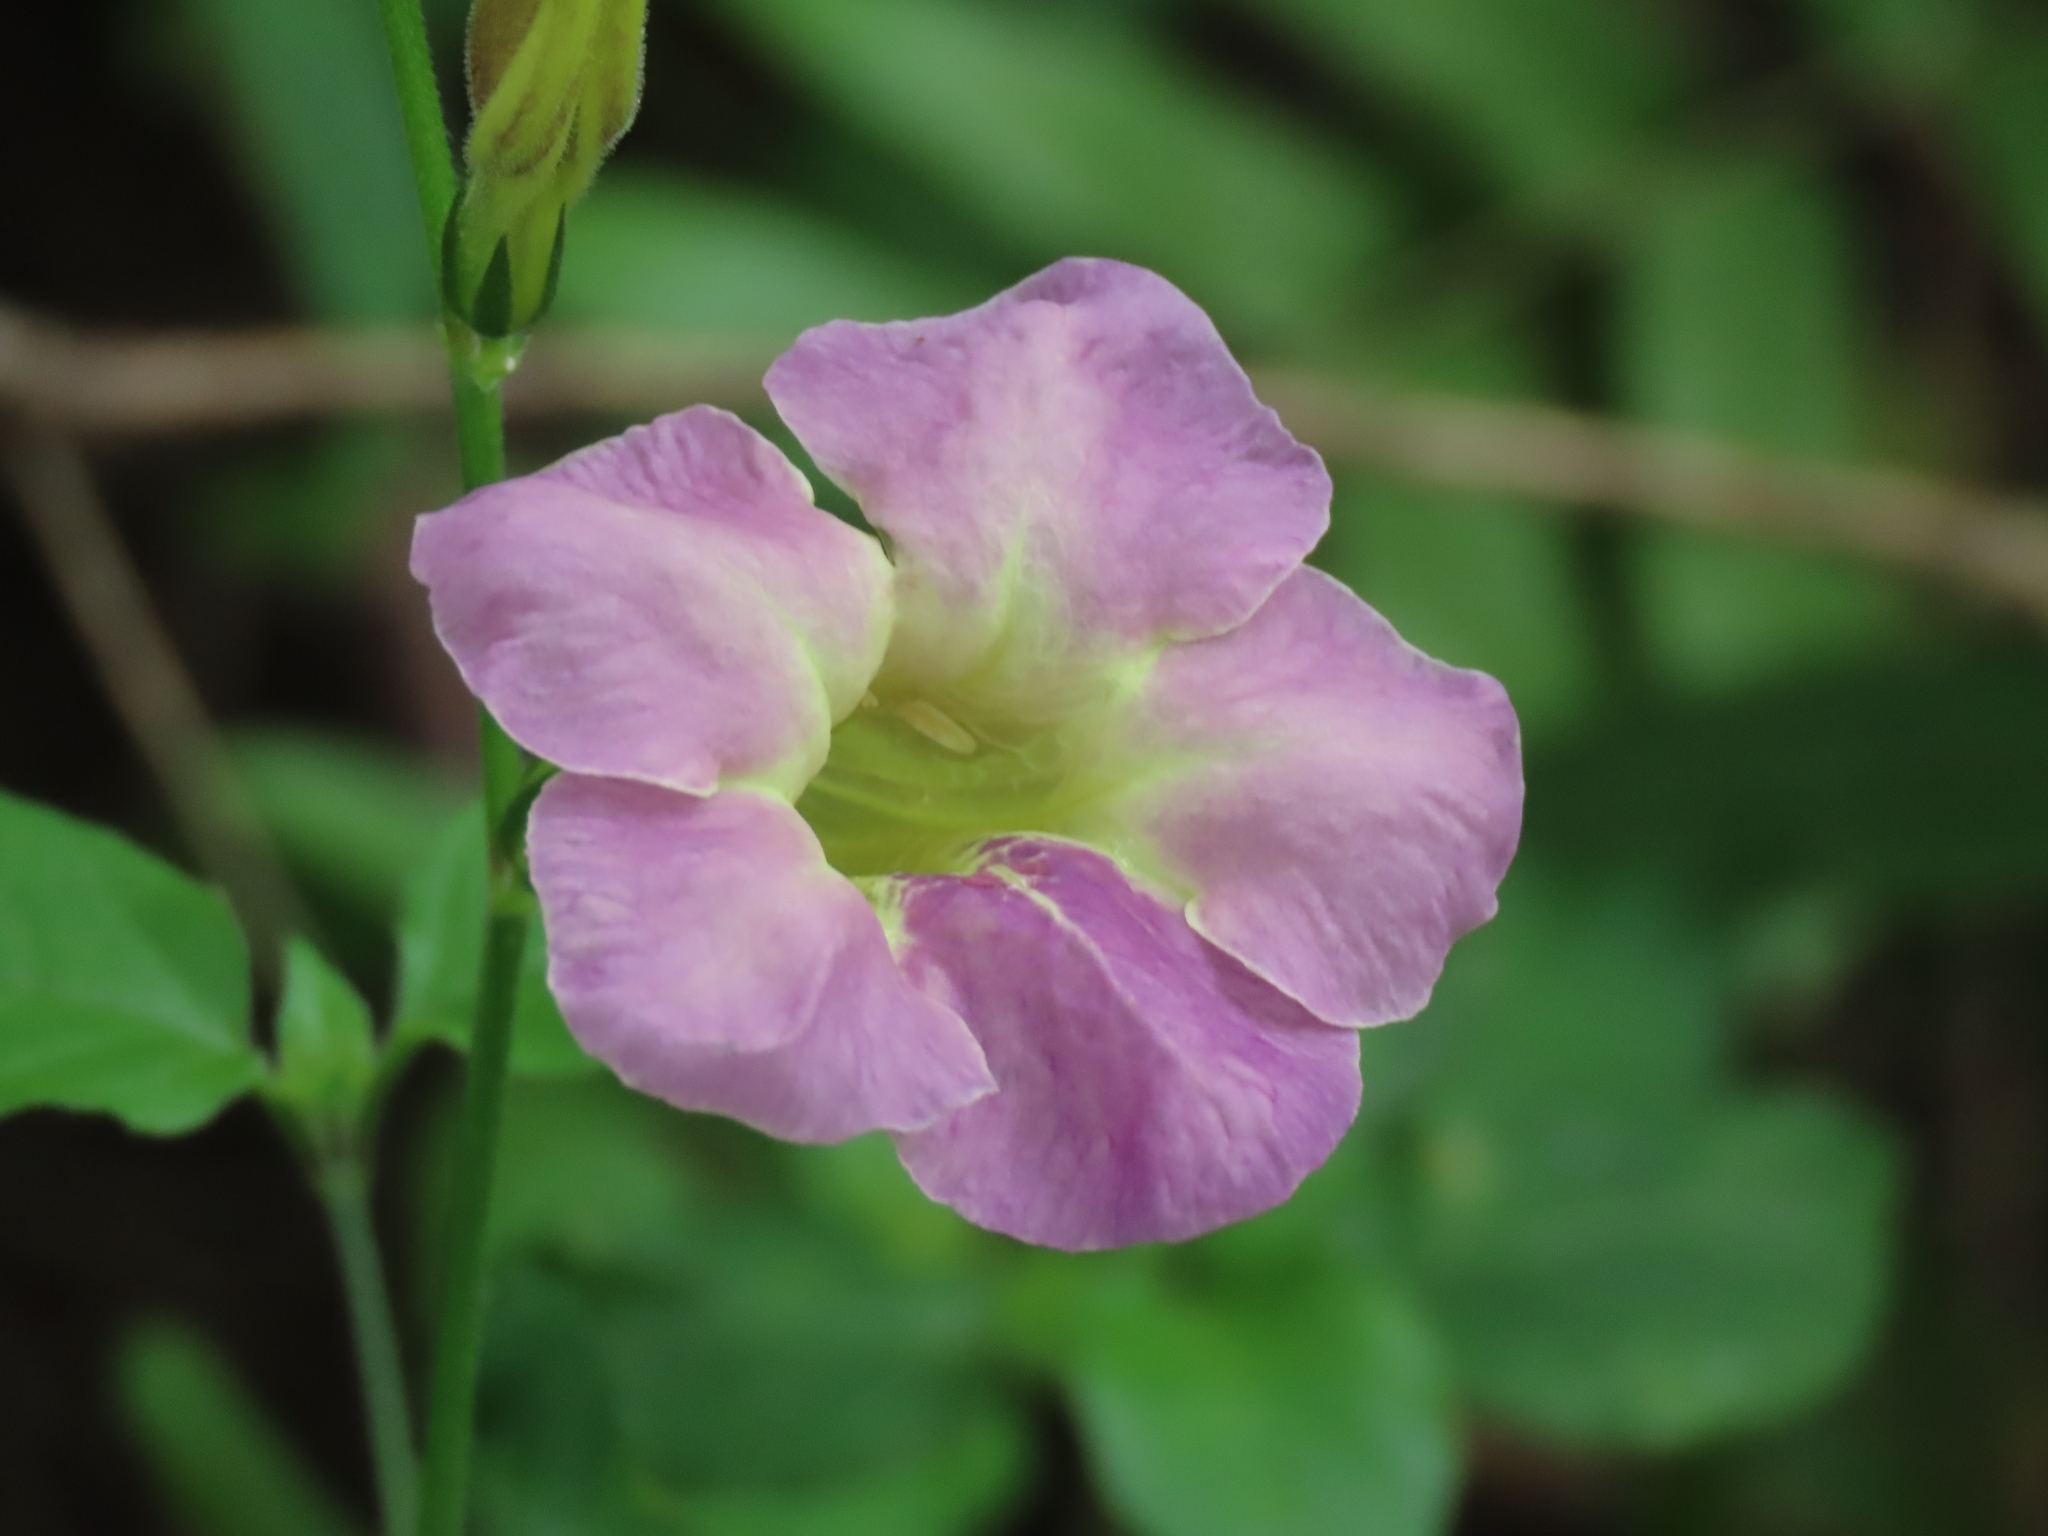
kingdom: Plantae
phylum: Tracheophyta
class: Magnoliopsida
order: Lamiales
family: Acanthaceae
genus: Asystasia
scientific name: Asystasia gangetica
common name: Chinese violet
